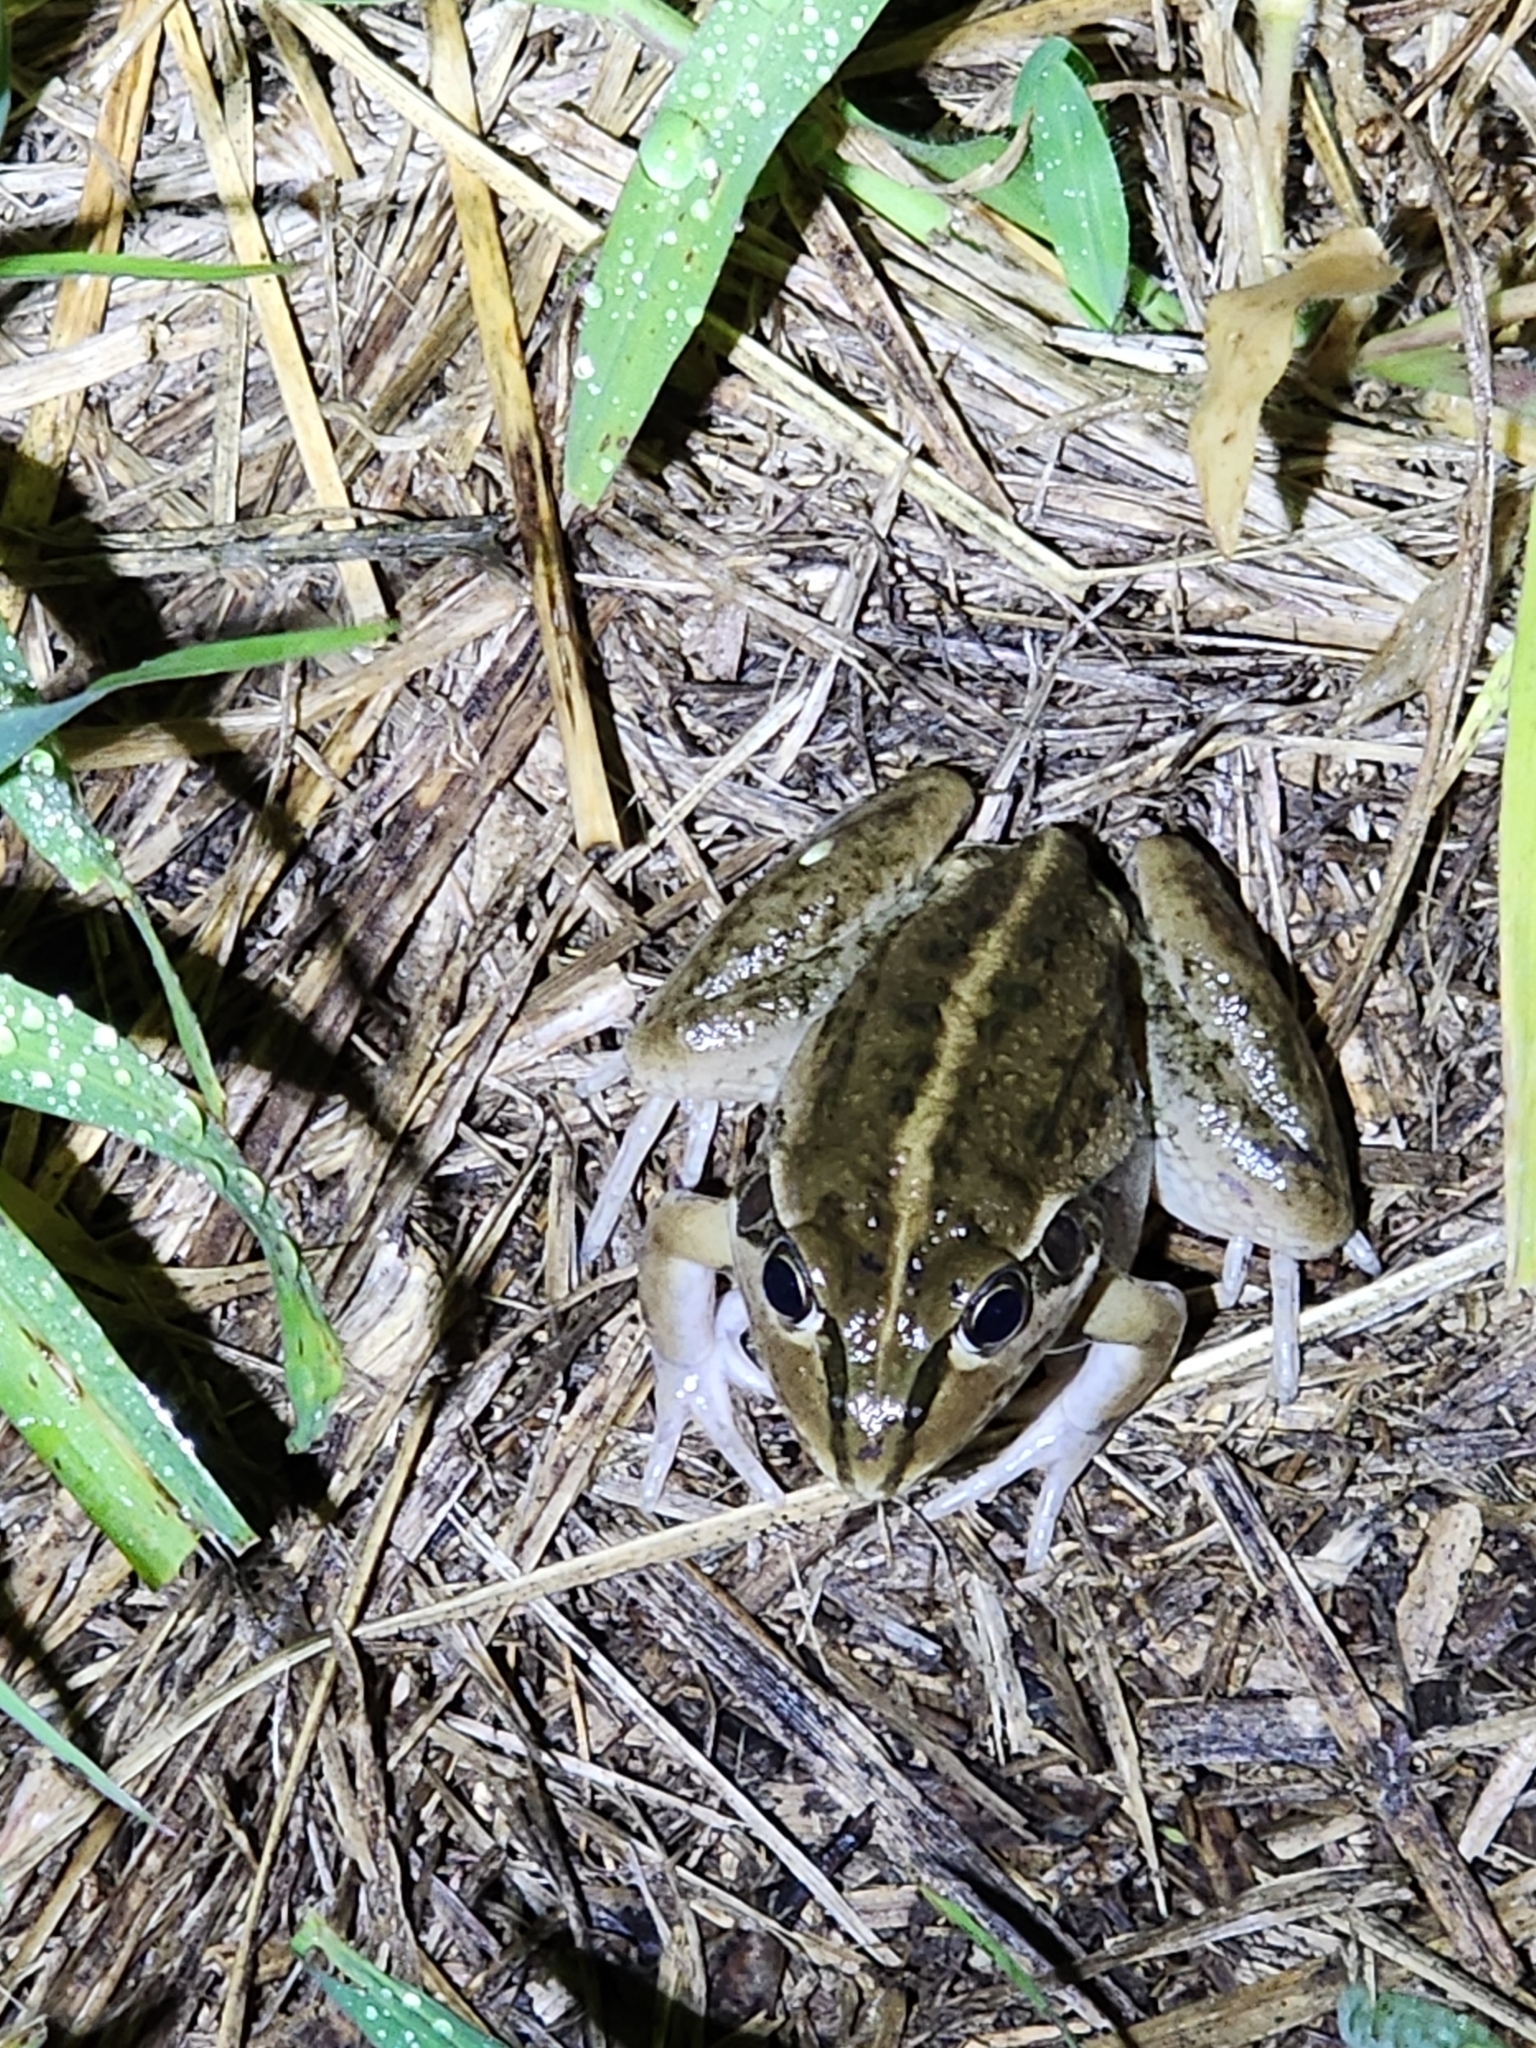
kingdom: Animalia
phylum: Chordata
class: Amphibia
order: Anura
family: Pelodryadidae
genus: Ranoidea
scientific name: Ranoidea alboguttata
